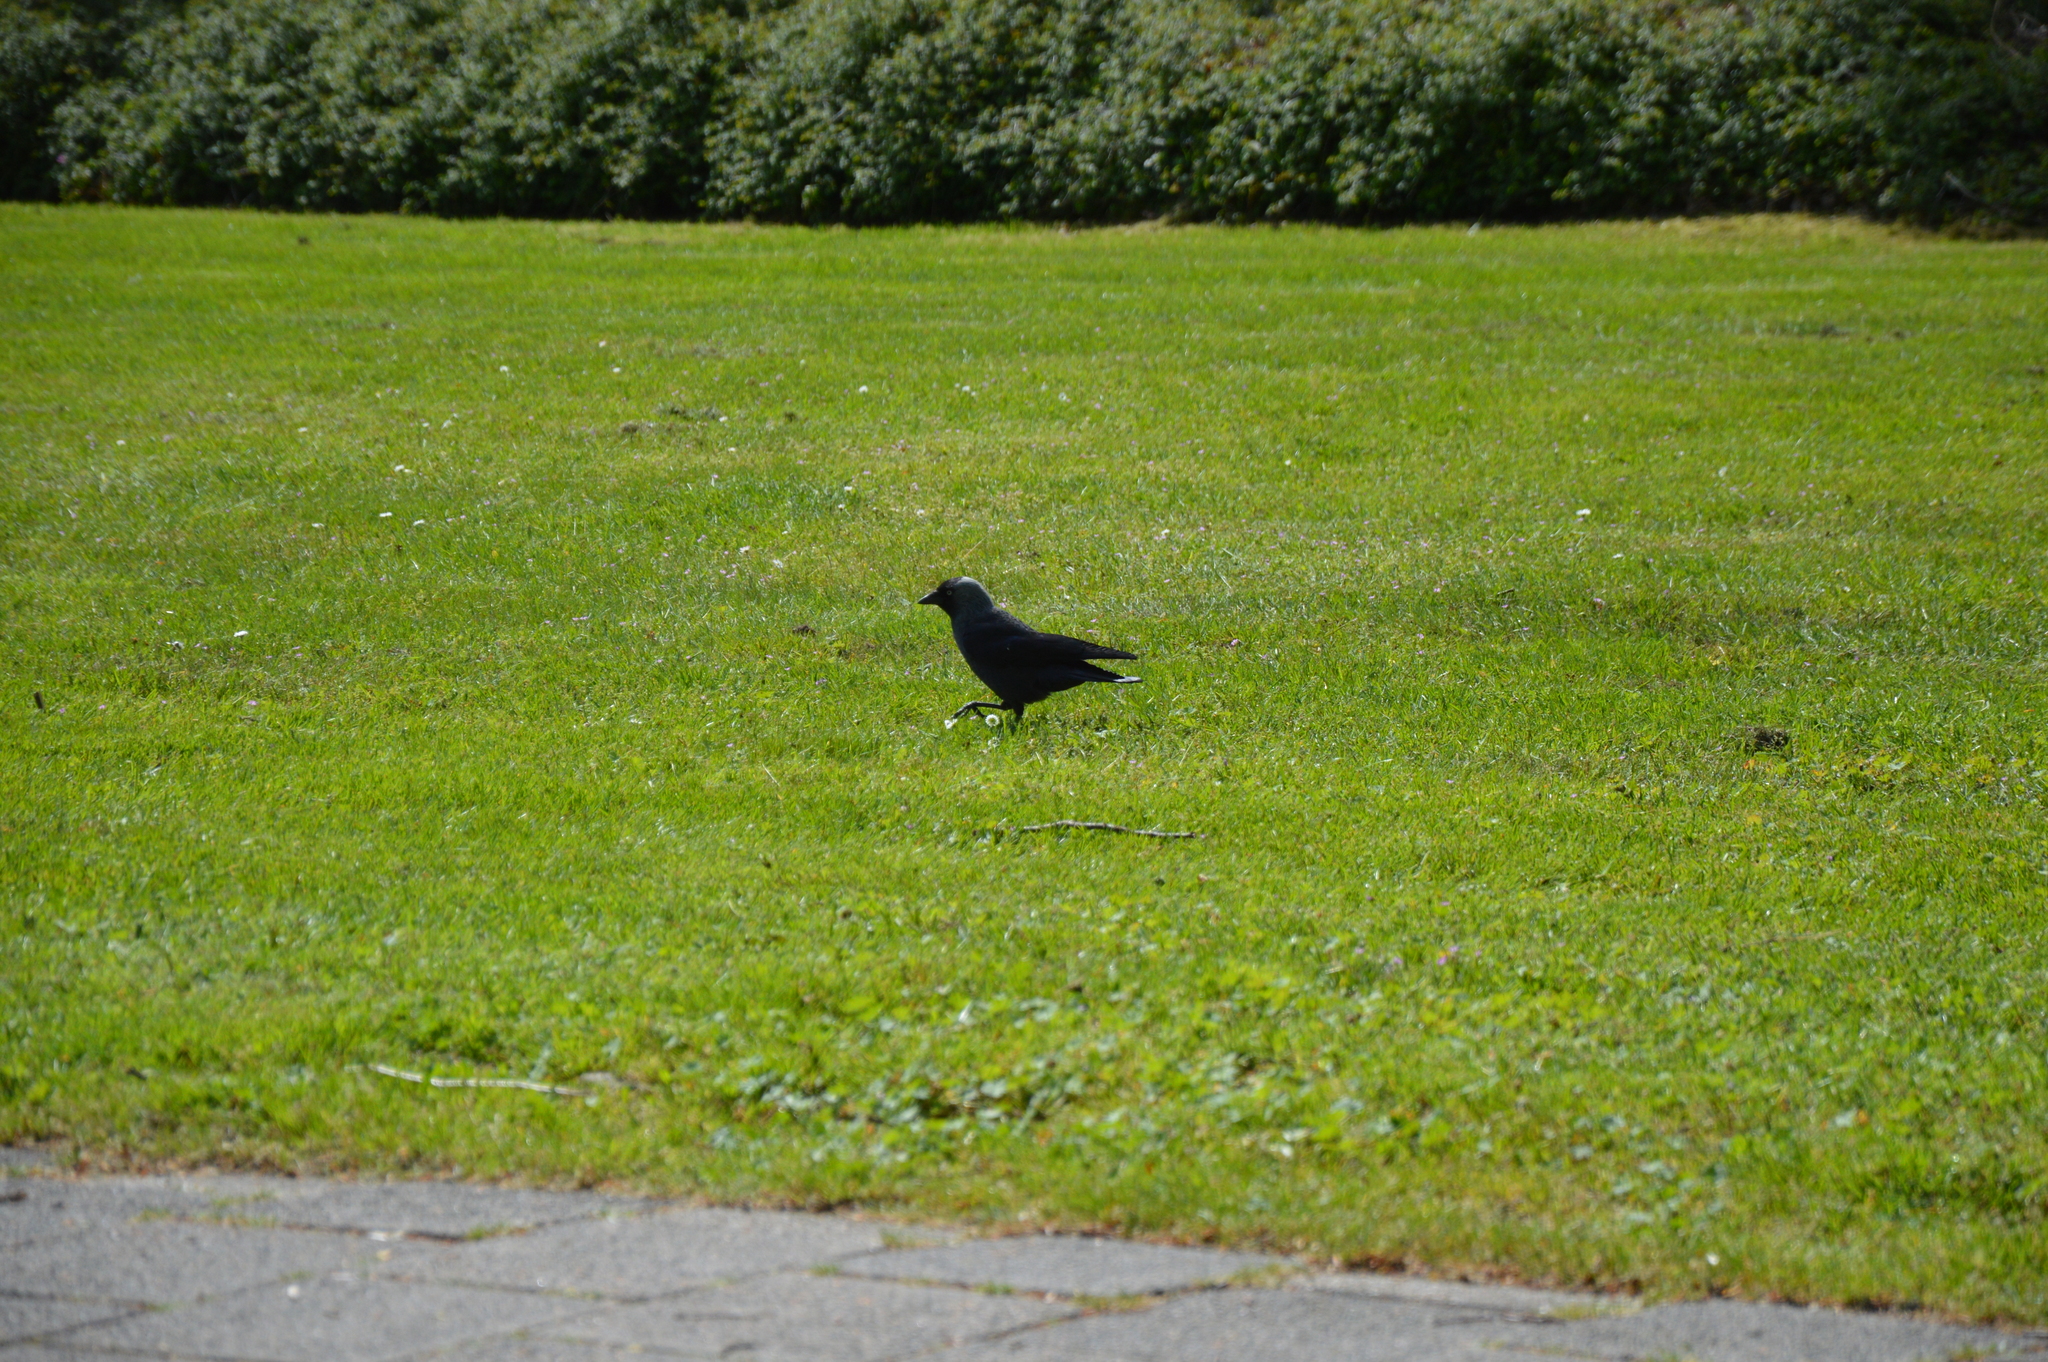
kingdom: Animalia
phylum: Chordata
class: Aves
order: Passeriformes
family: Corvidae
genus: Coloeus
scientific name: Coloeus monedula
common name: Western jackdaw
